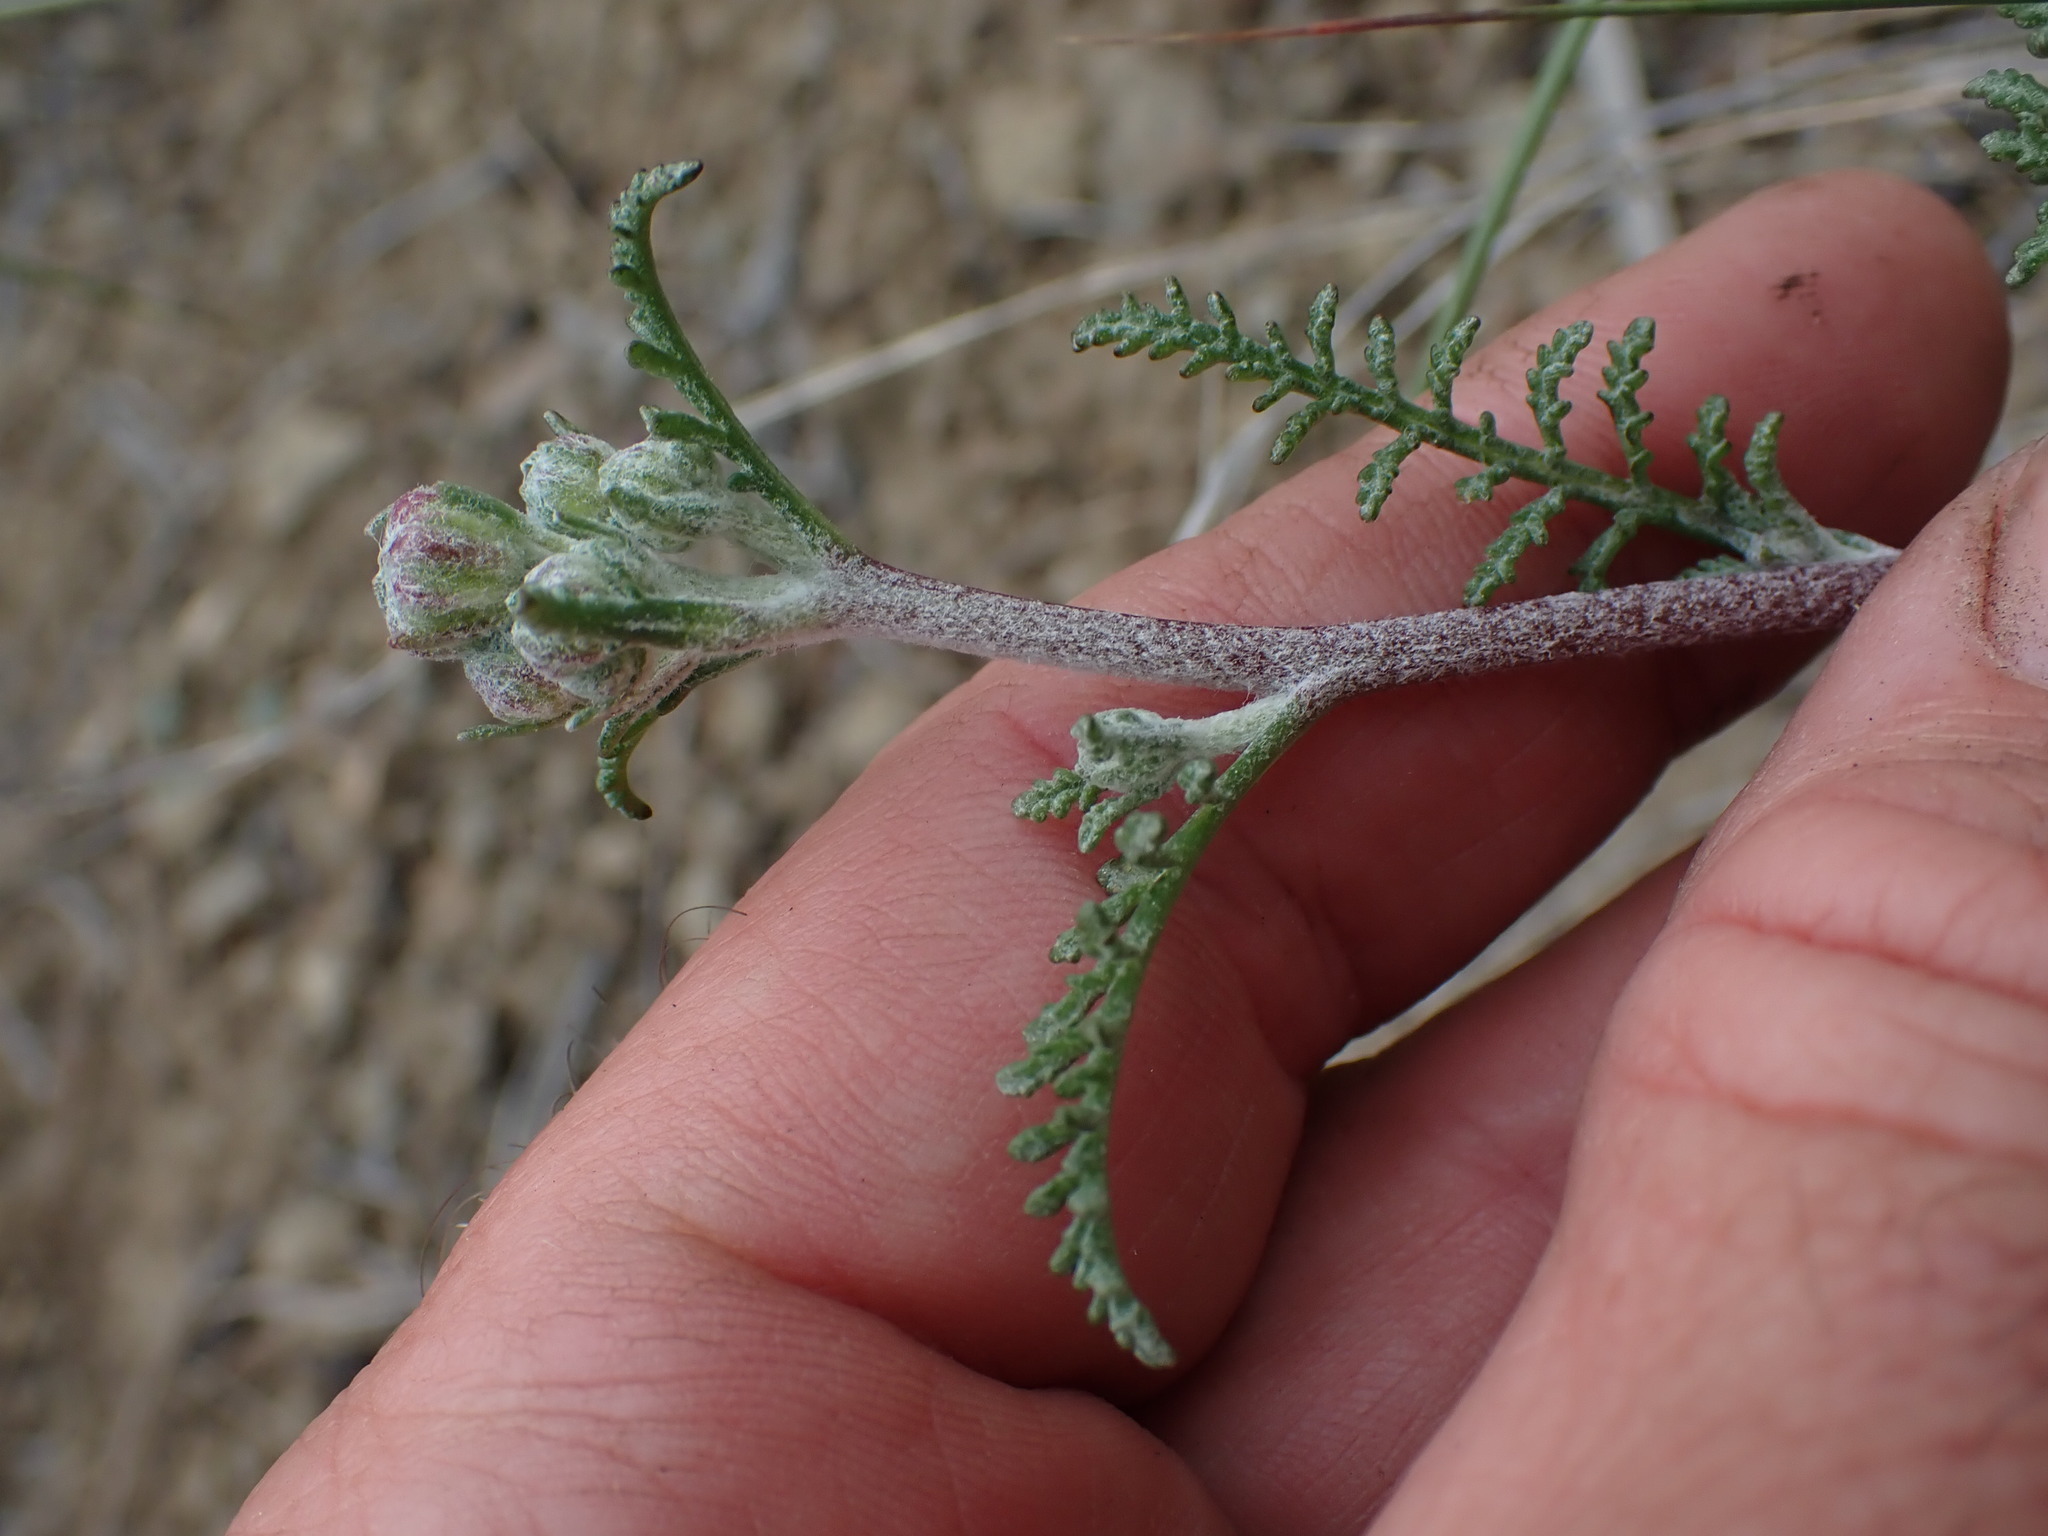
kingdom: Plantae
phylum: Tracheophyta
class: Magnoliopsida
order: Asterales
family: Asteraceae
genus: Chaenactis
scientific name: Chaenactis douglasii
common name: Hoary pincushion
